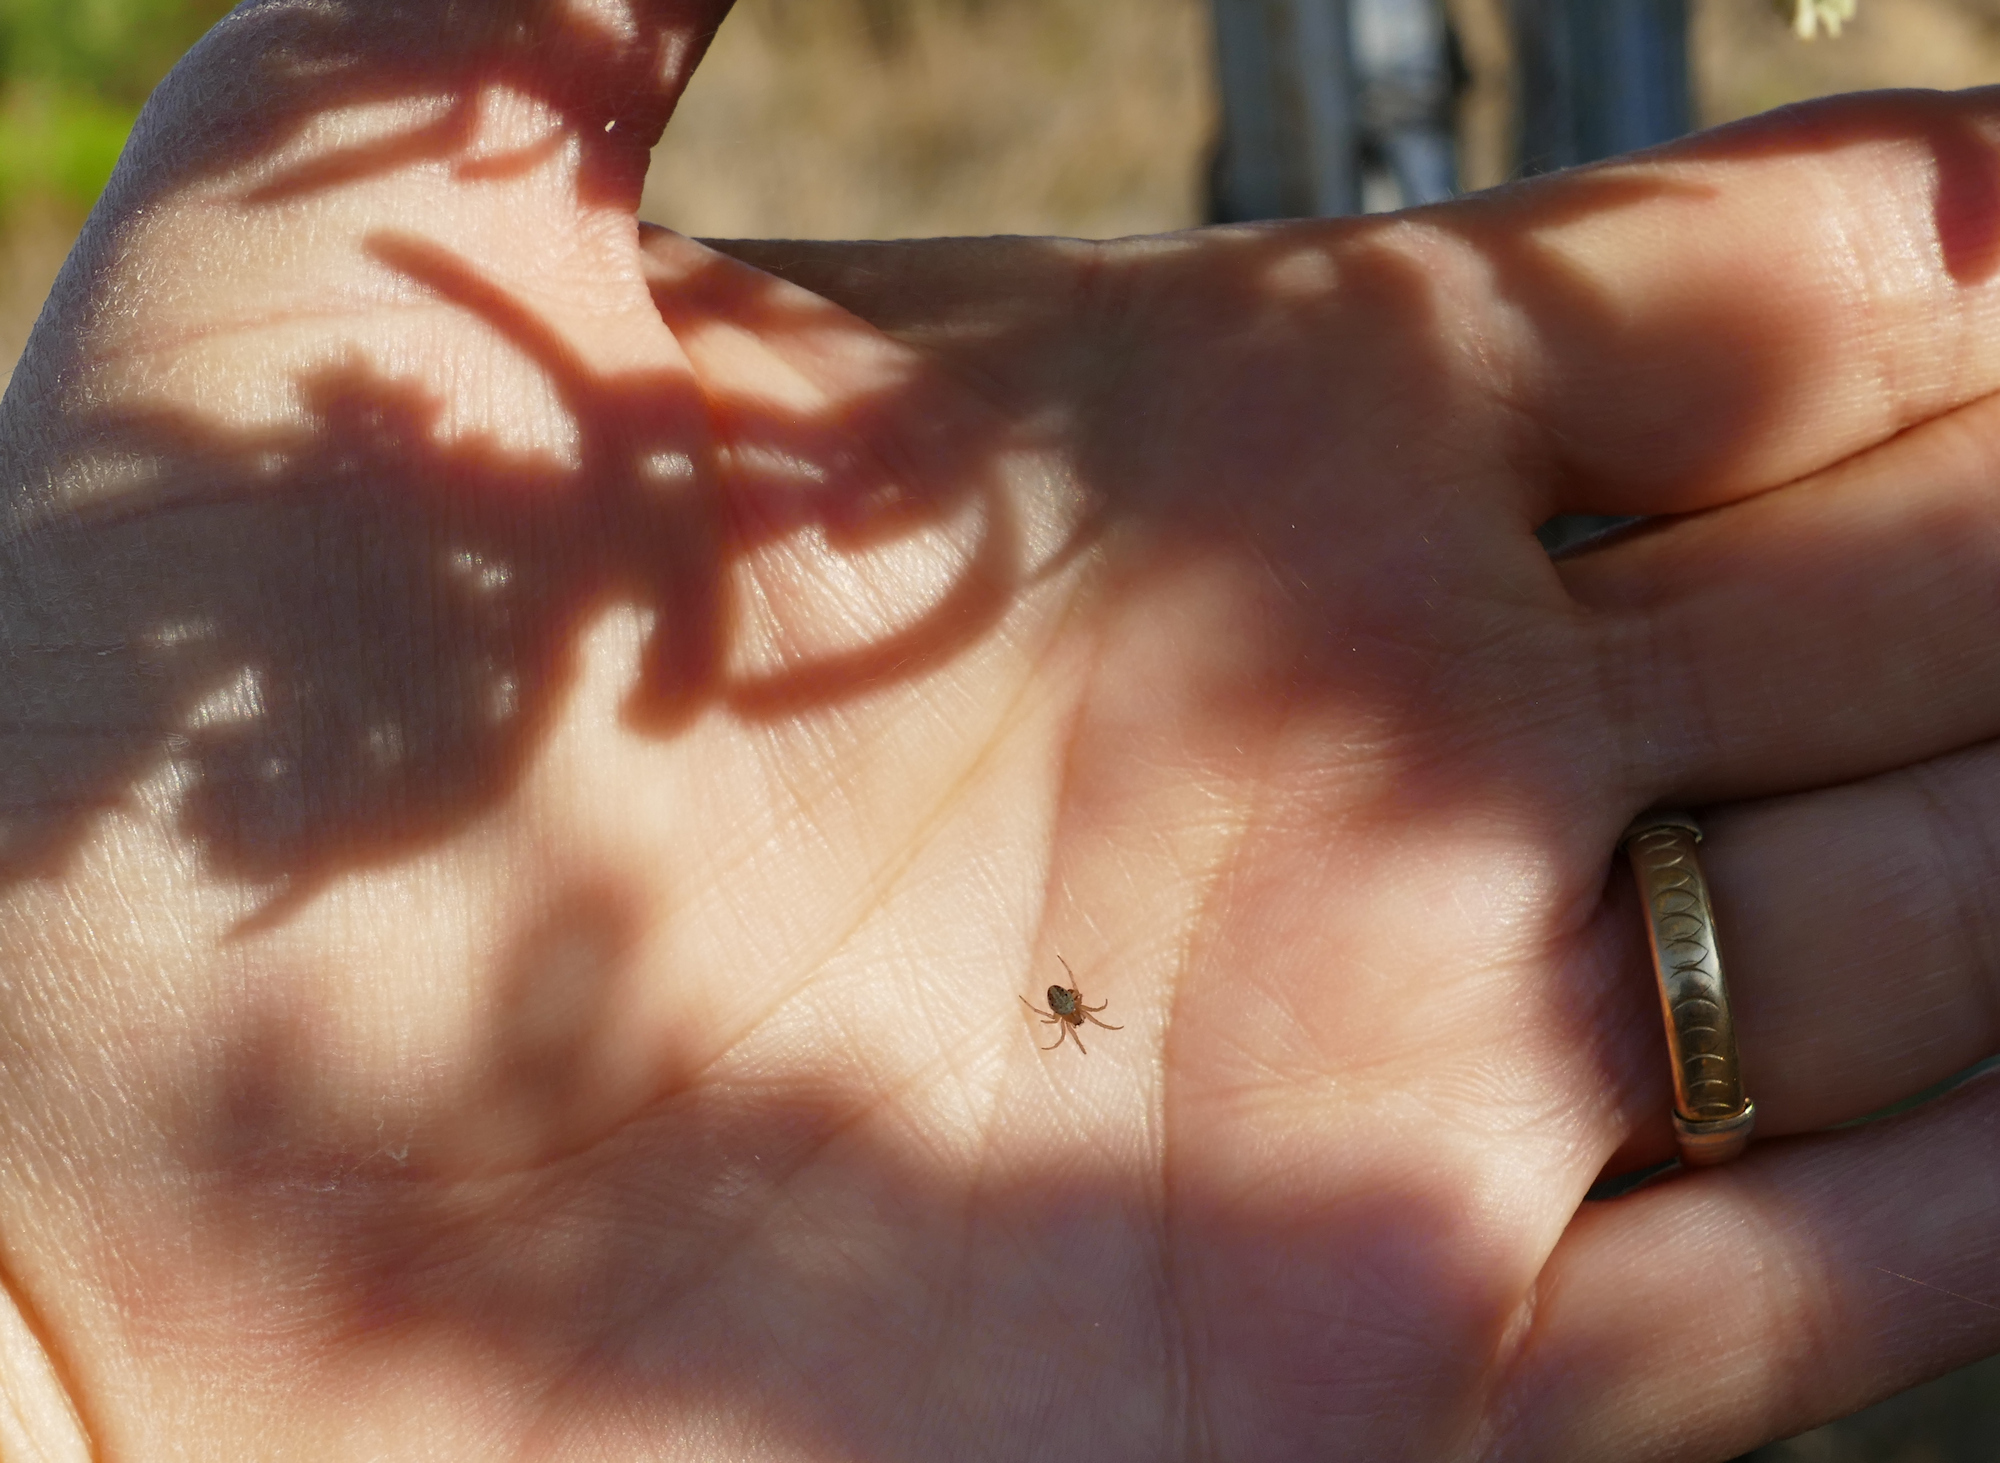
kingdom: Animalia
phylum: Arthropoda
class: Arachnida
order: Araneae
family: Araneidae
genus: Neoscona
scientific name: Neoscona oaxacensis
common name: Orb weavers
